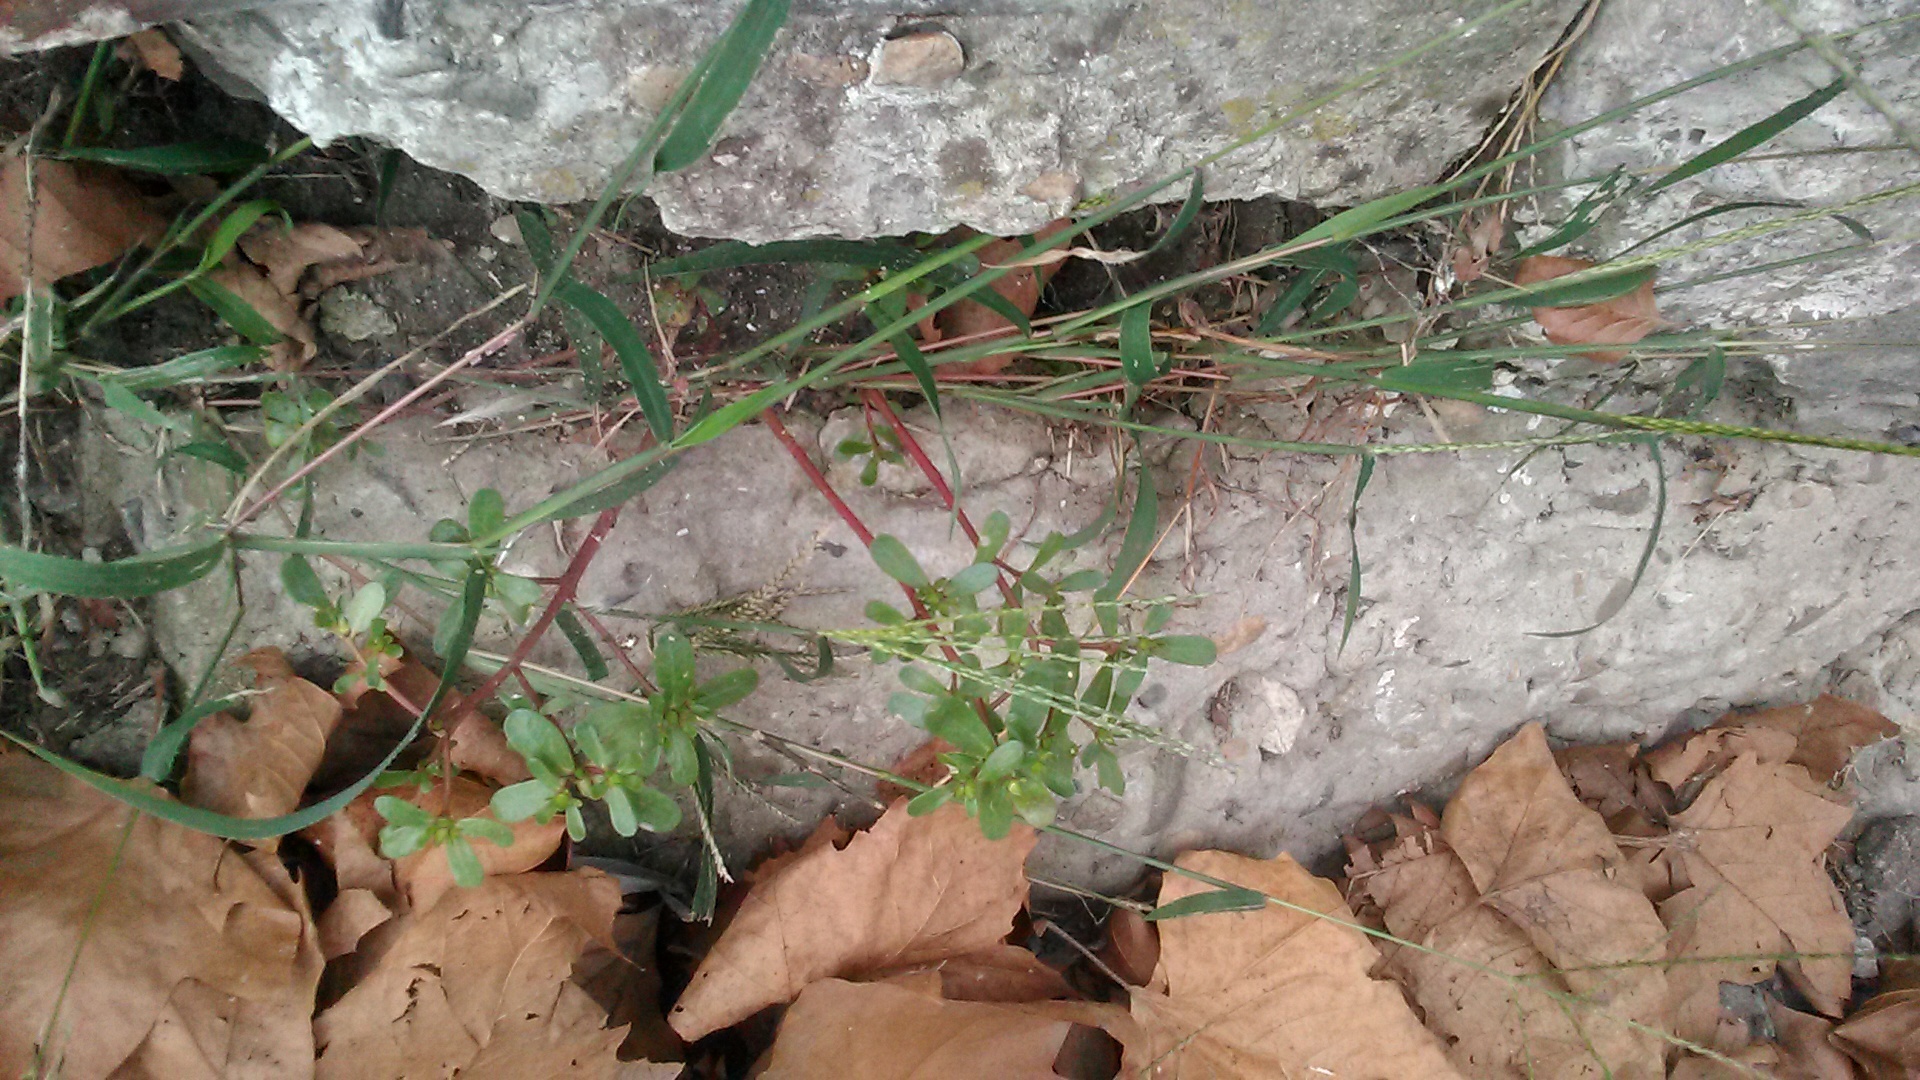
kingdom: Plantae
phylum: Tracheophyta
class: Magnoliopsida
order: Caryophyllales
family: Portulacaceae
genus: Portulaca
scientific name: Portulaca oleracea
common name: Common purslane
